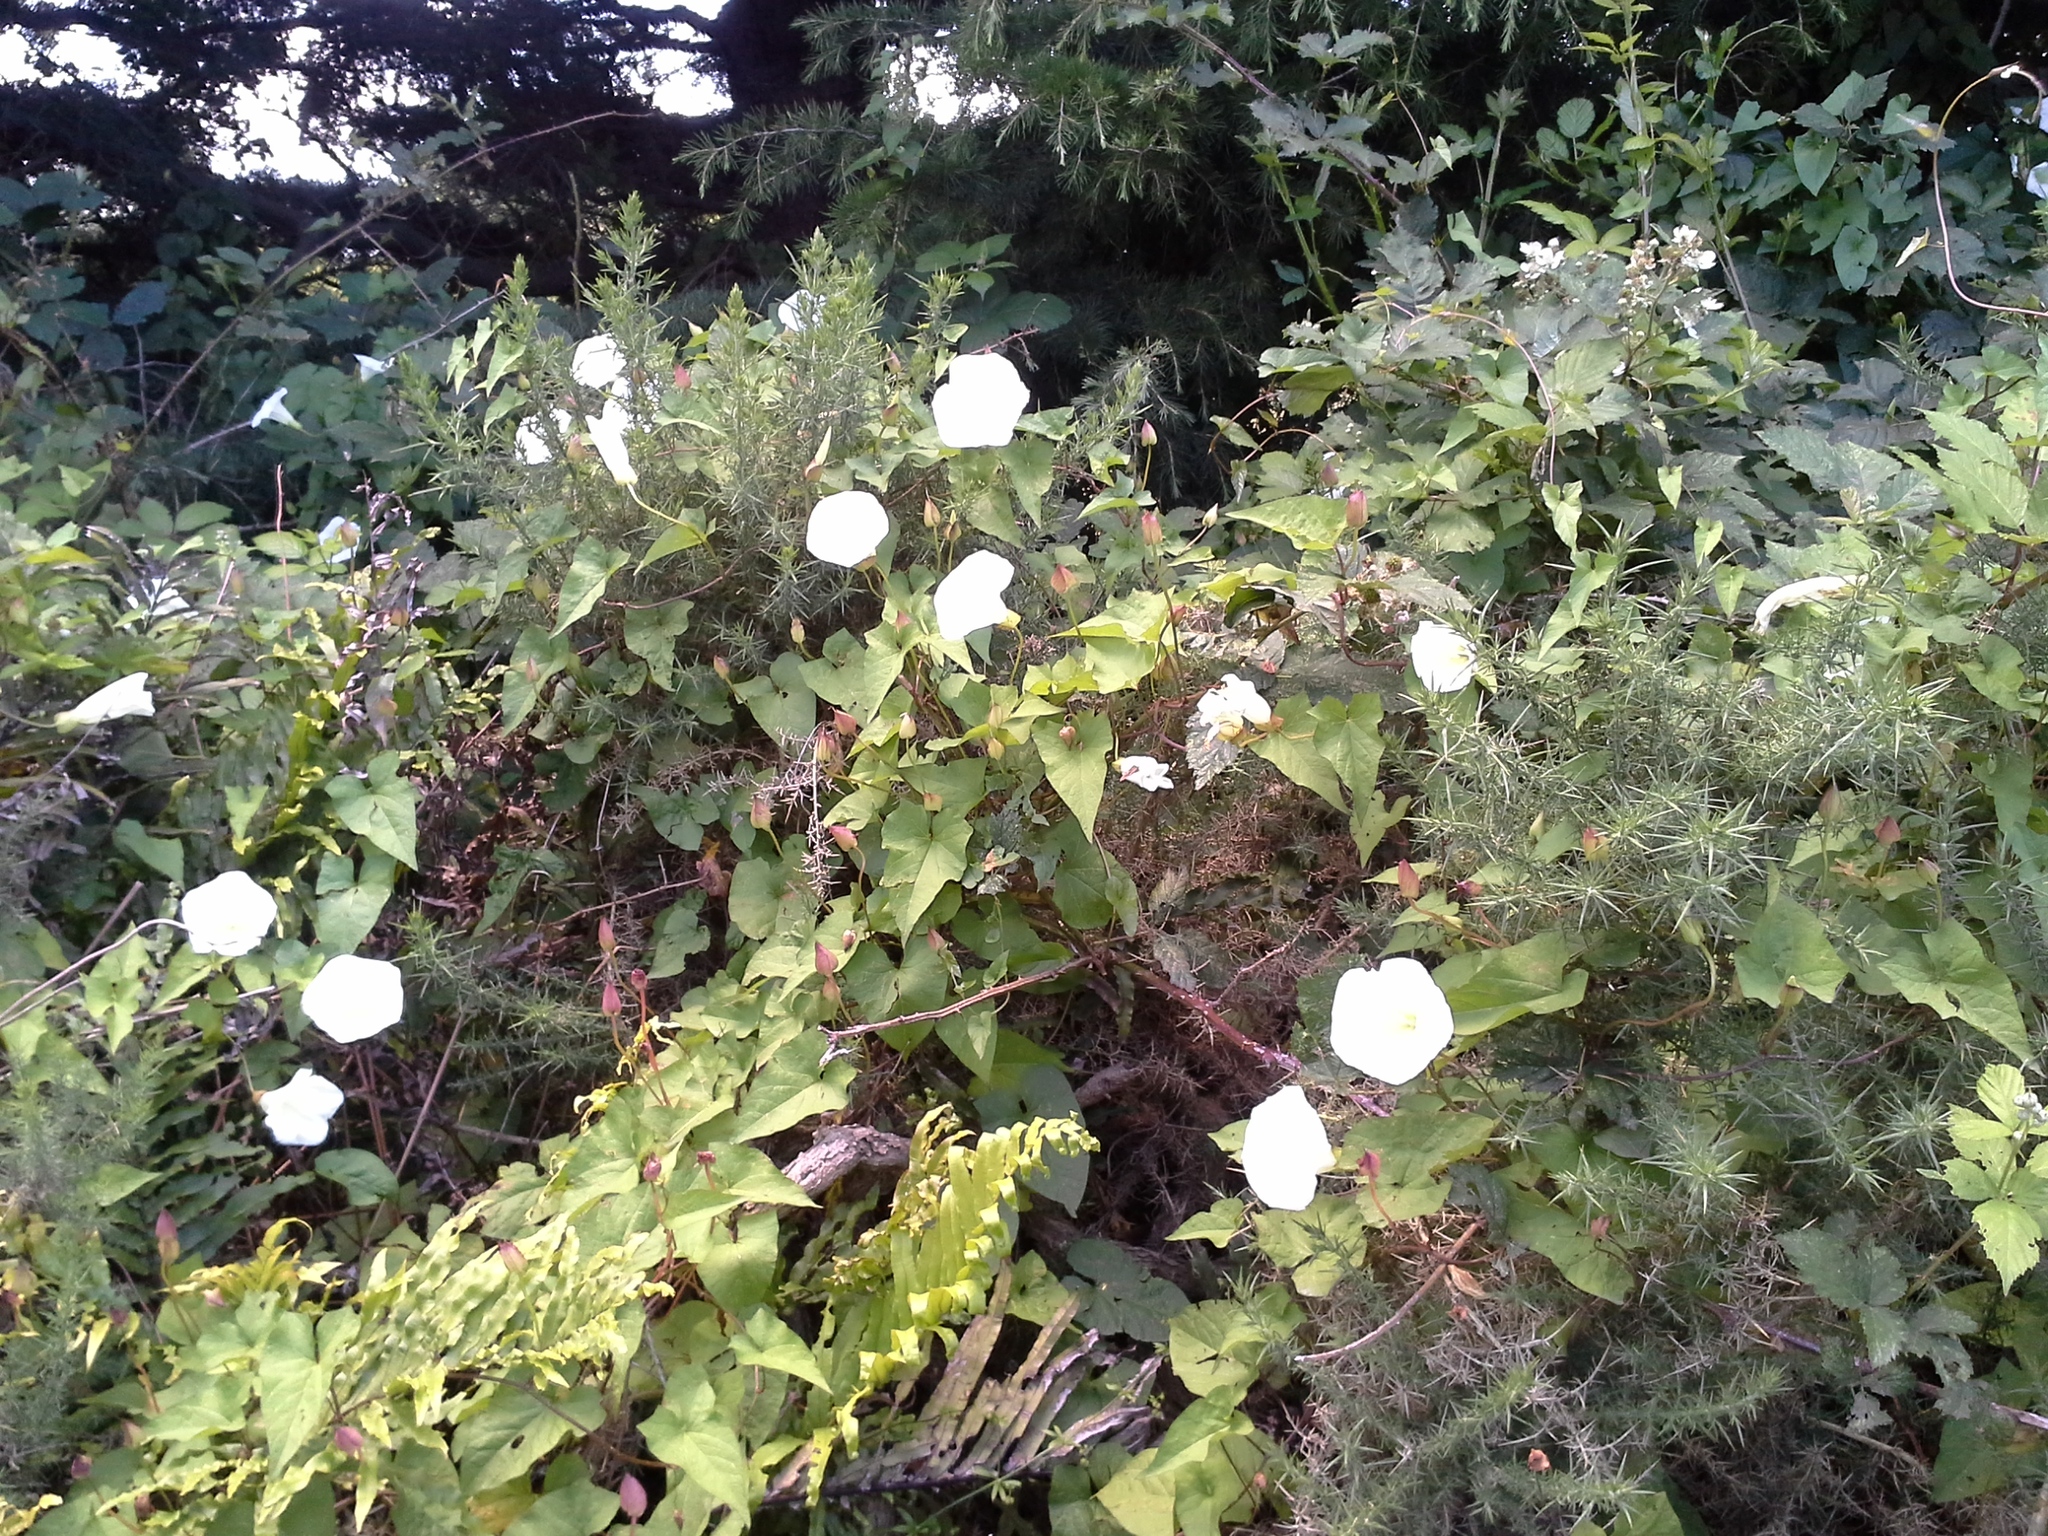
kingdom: Plantae
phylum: Tracheophyta
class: Magnoliopsida
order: Solanales
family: Convolvulaceae
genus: Calystegia
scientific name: Calystegia silvatica
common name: Large bindweed
